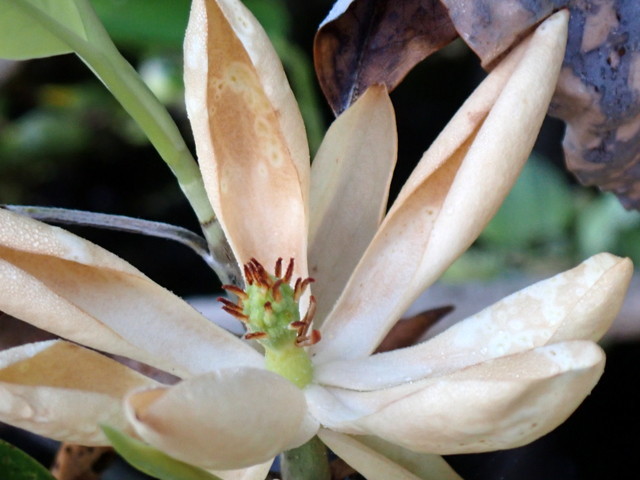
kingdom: Plantae
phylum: Tracheophyta
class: Magnoliopsida
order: Magnoliales
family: Magnoliaceae
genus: Magnolia
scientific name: Magnolia virginiana
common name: Swamp bay
